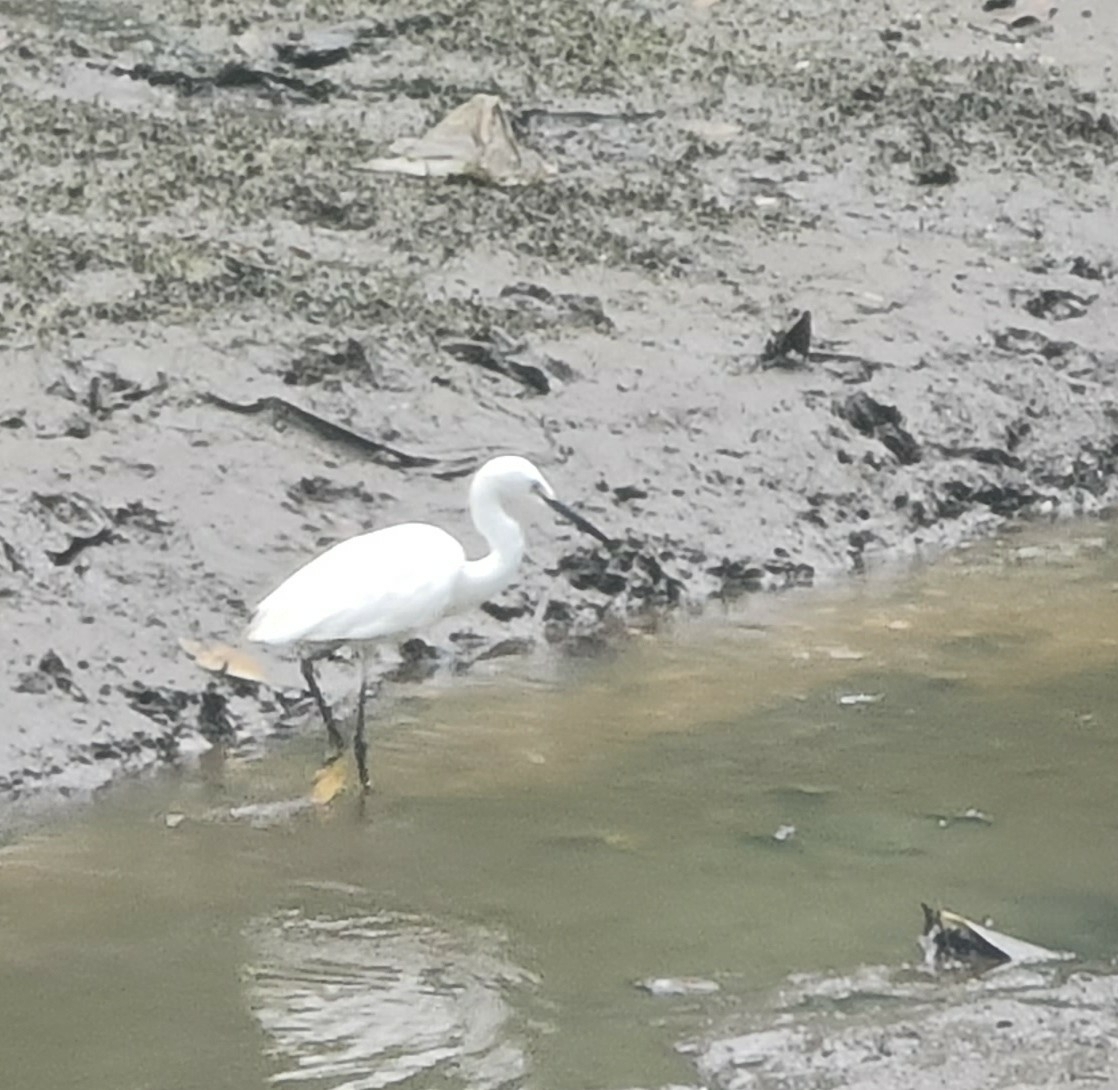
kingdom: Animalia
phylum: Chordata
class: Aves
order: Pelecaniformes
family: Ardeidae
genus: Egretta
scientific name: Egretta garzetta
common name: Little egret
